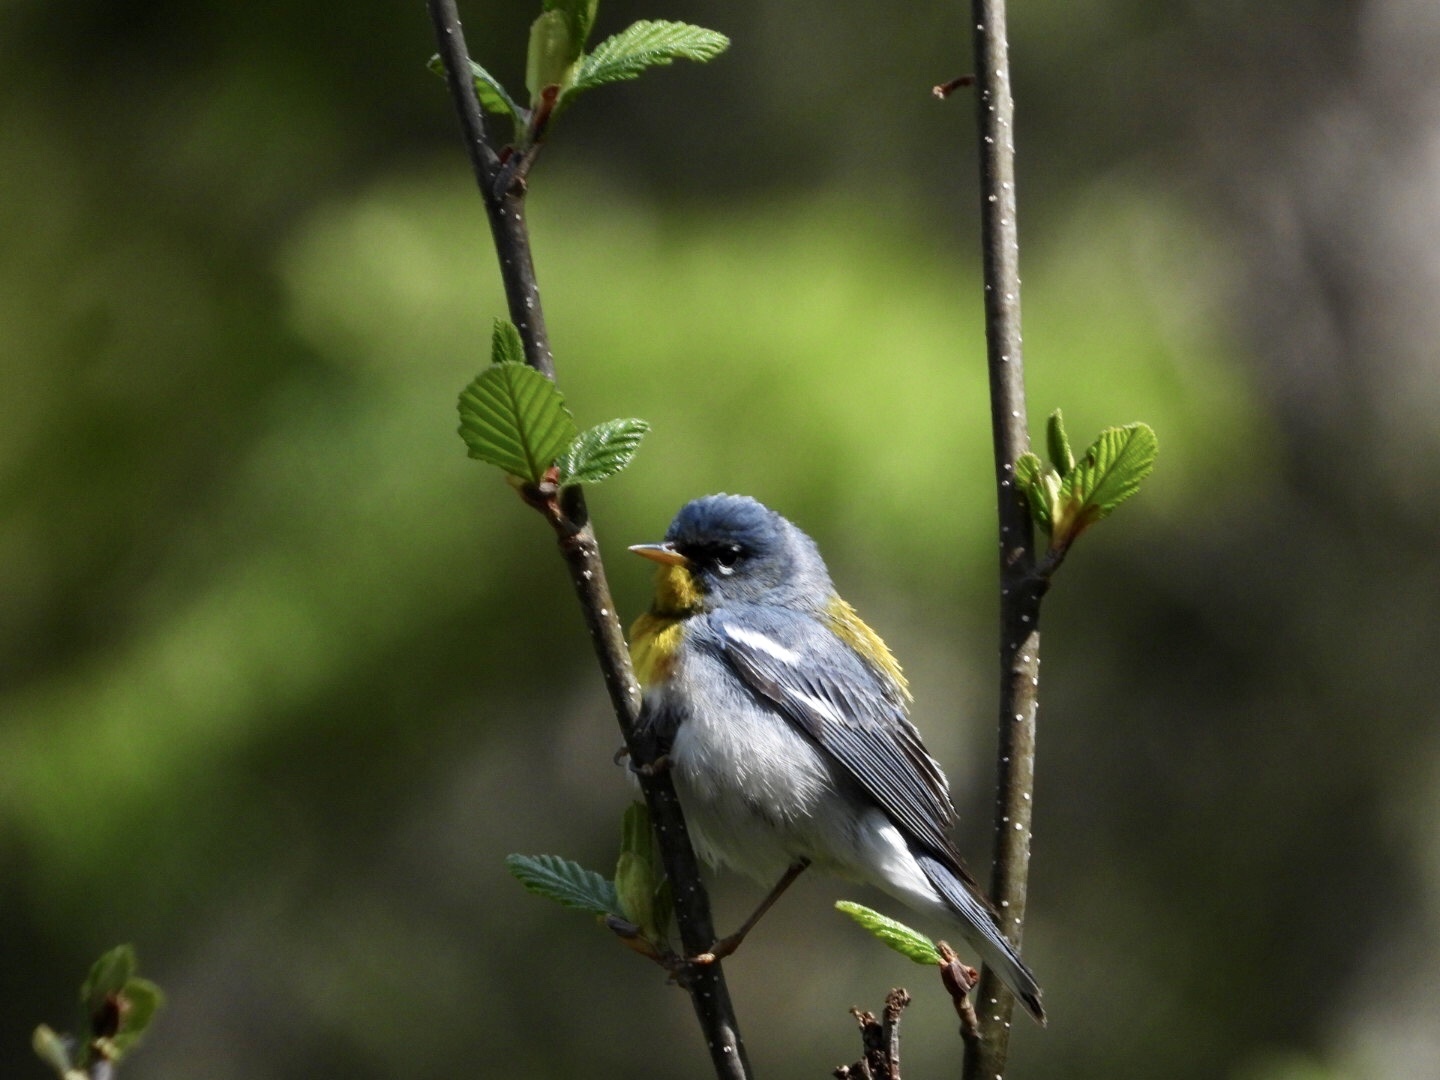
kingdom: Animalia
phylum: Chordata
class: Aves
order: Passeriformes
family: Parulidae
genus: Setophaga
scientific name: Setophaga americana
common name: Northern parula
